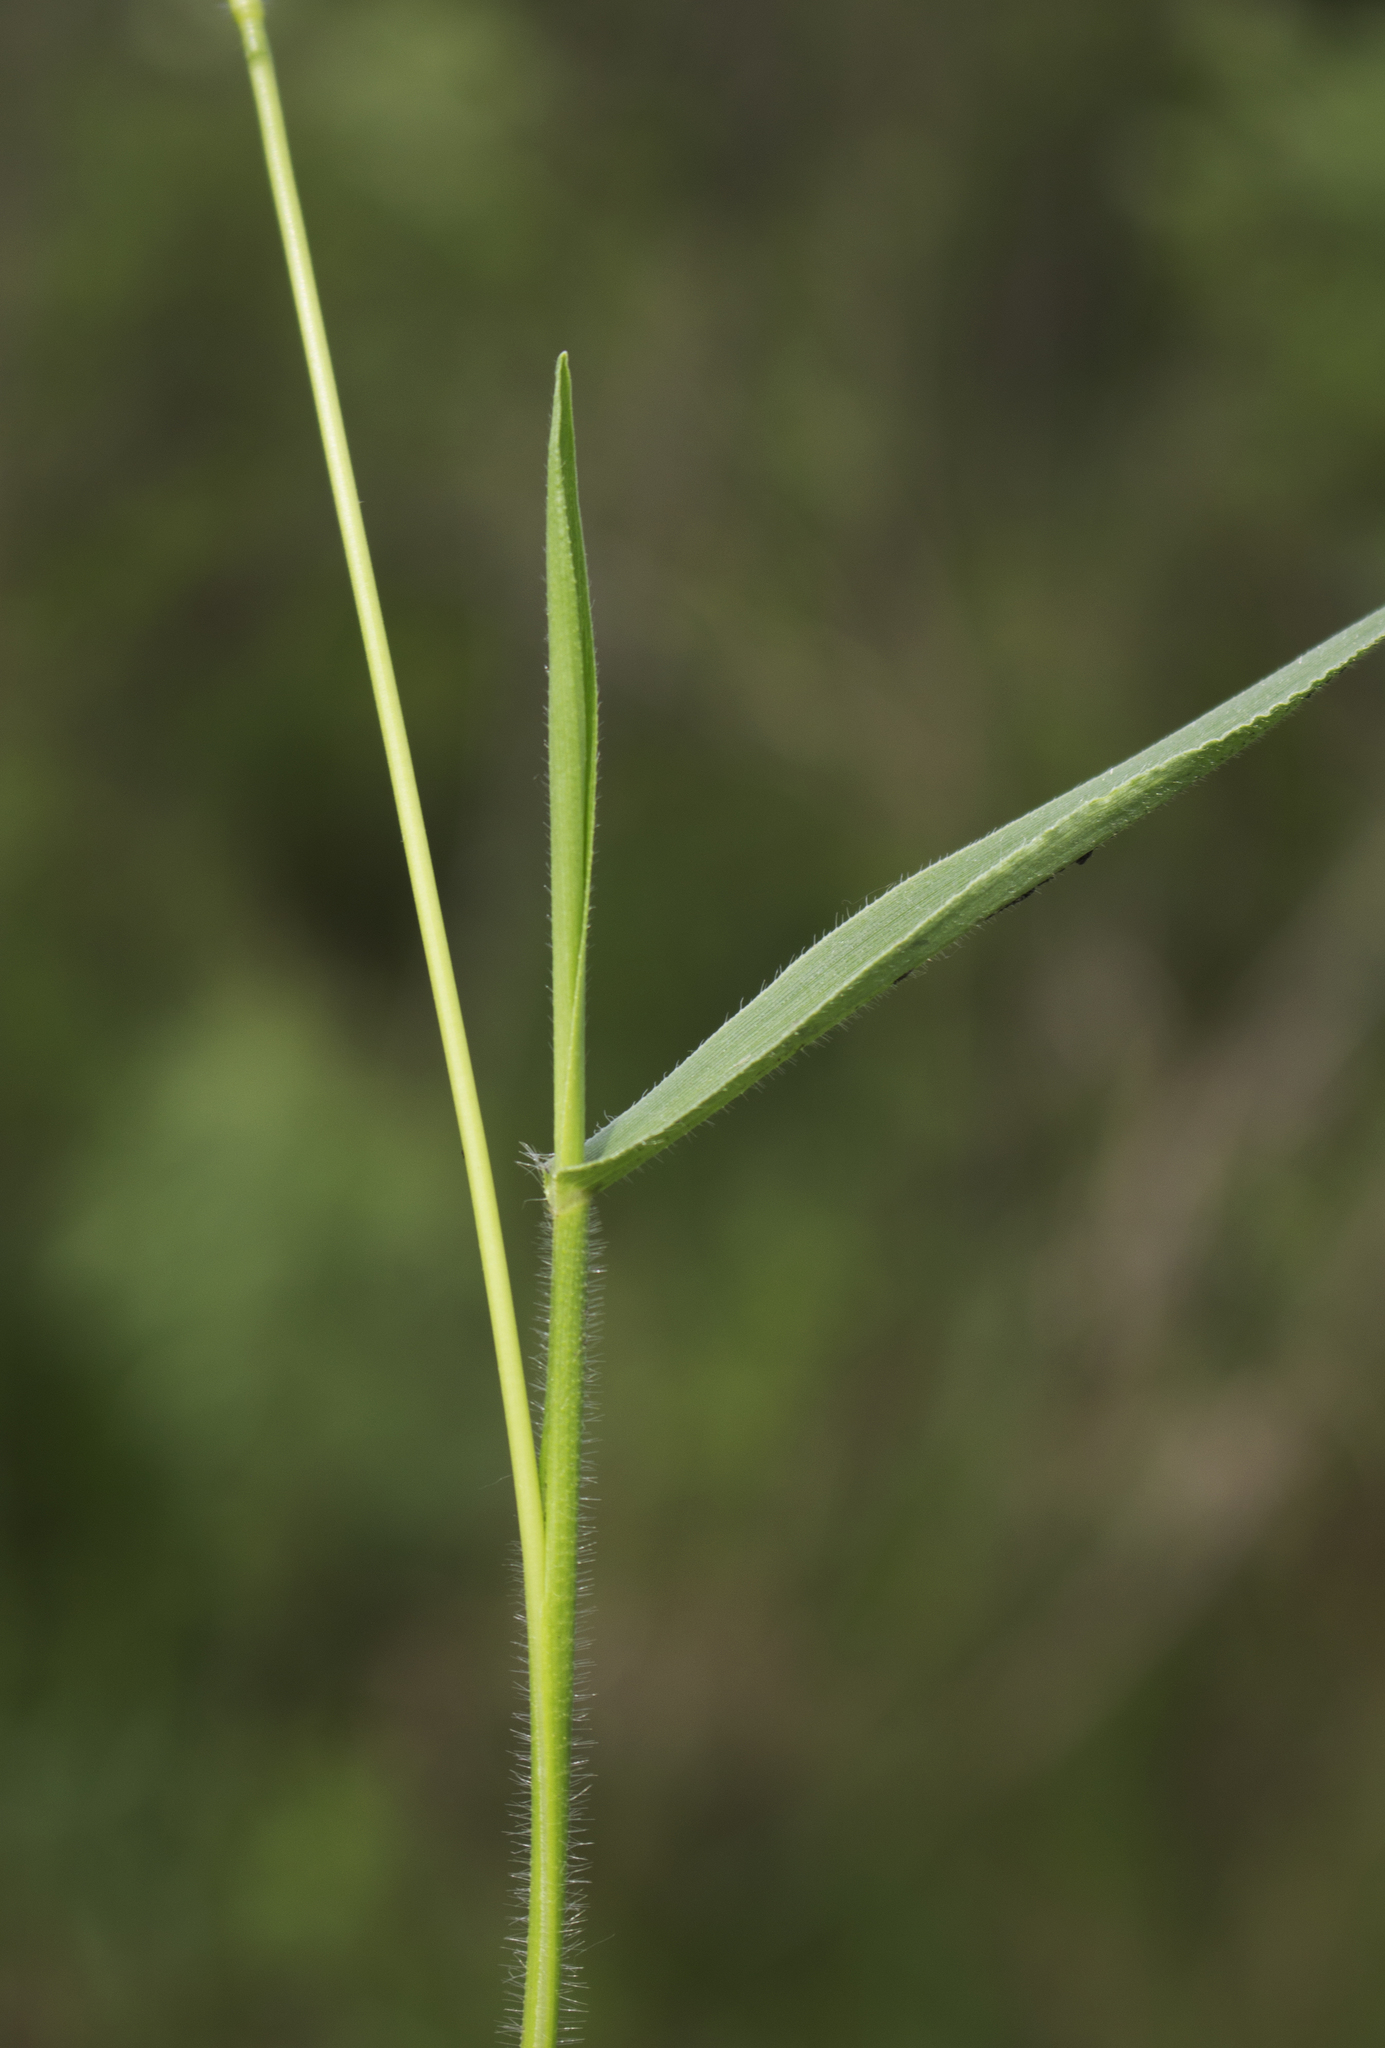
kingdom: Plantae
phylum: Tracheophyta
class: Liliopsida
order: Poales
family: Poaceae
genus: Dichanthelium
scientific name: Dichanthelium leibergii
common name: Leiberg's panic grass
